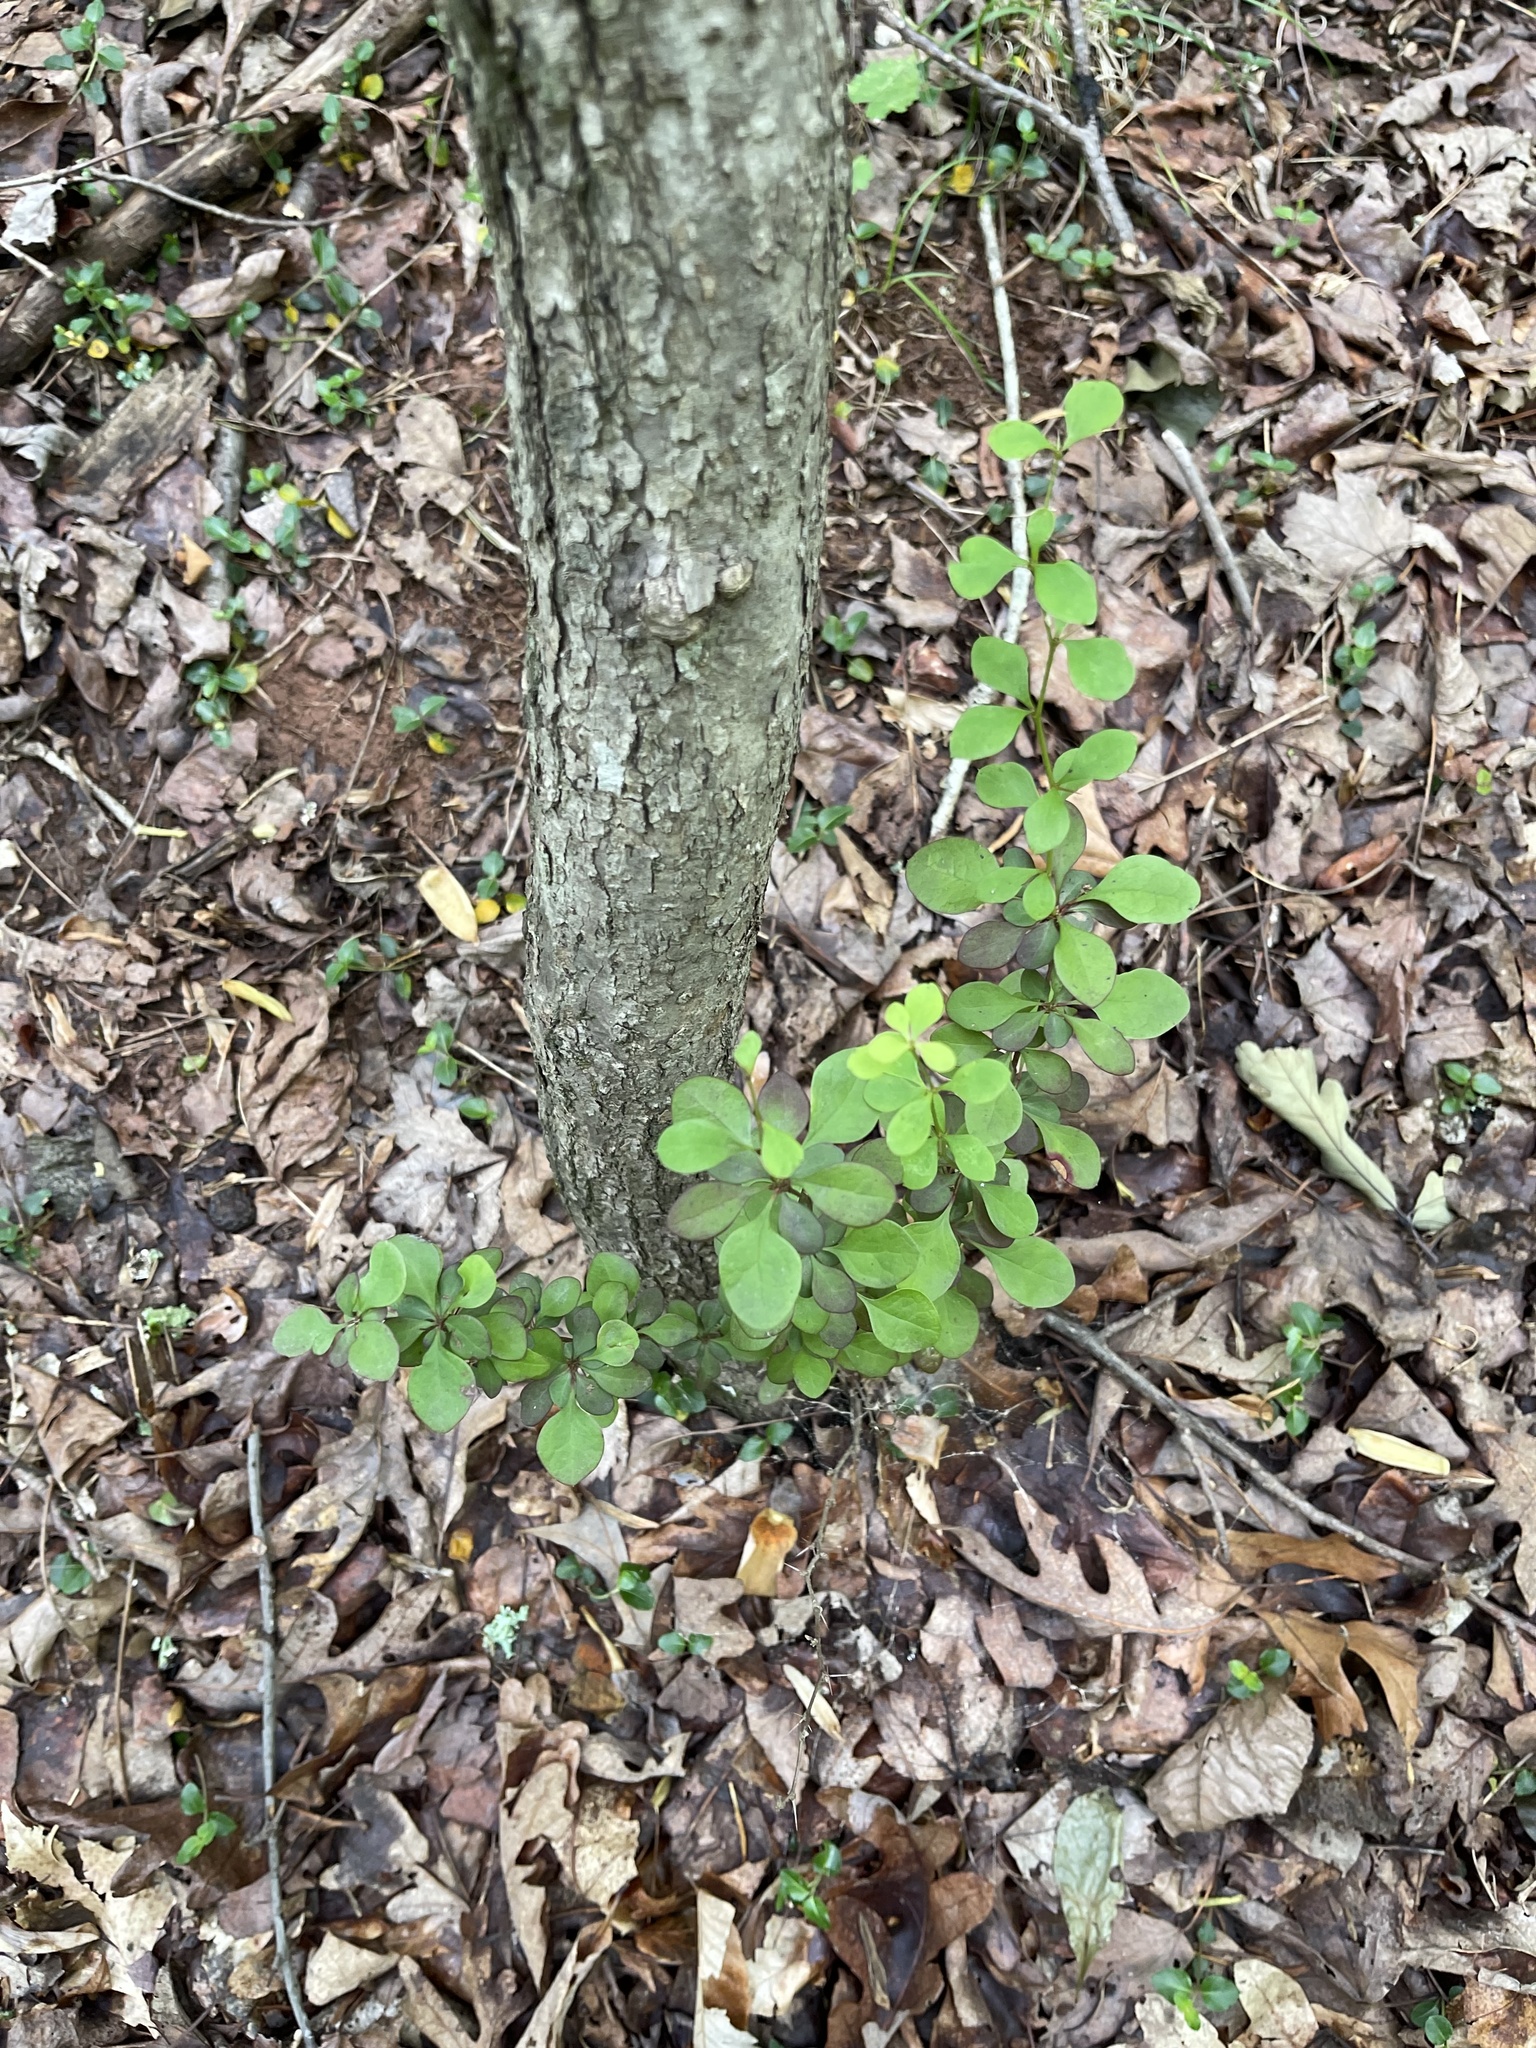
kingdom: Plantae
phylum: Tracheophyta
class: Magnoliopsida
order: Ranunculales
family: Berberidaceae
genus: Berberis
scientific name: Berberis thunbergii
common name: Japanese barberry
